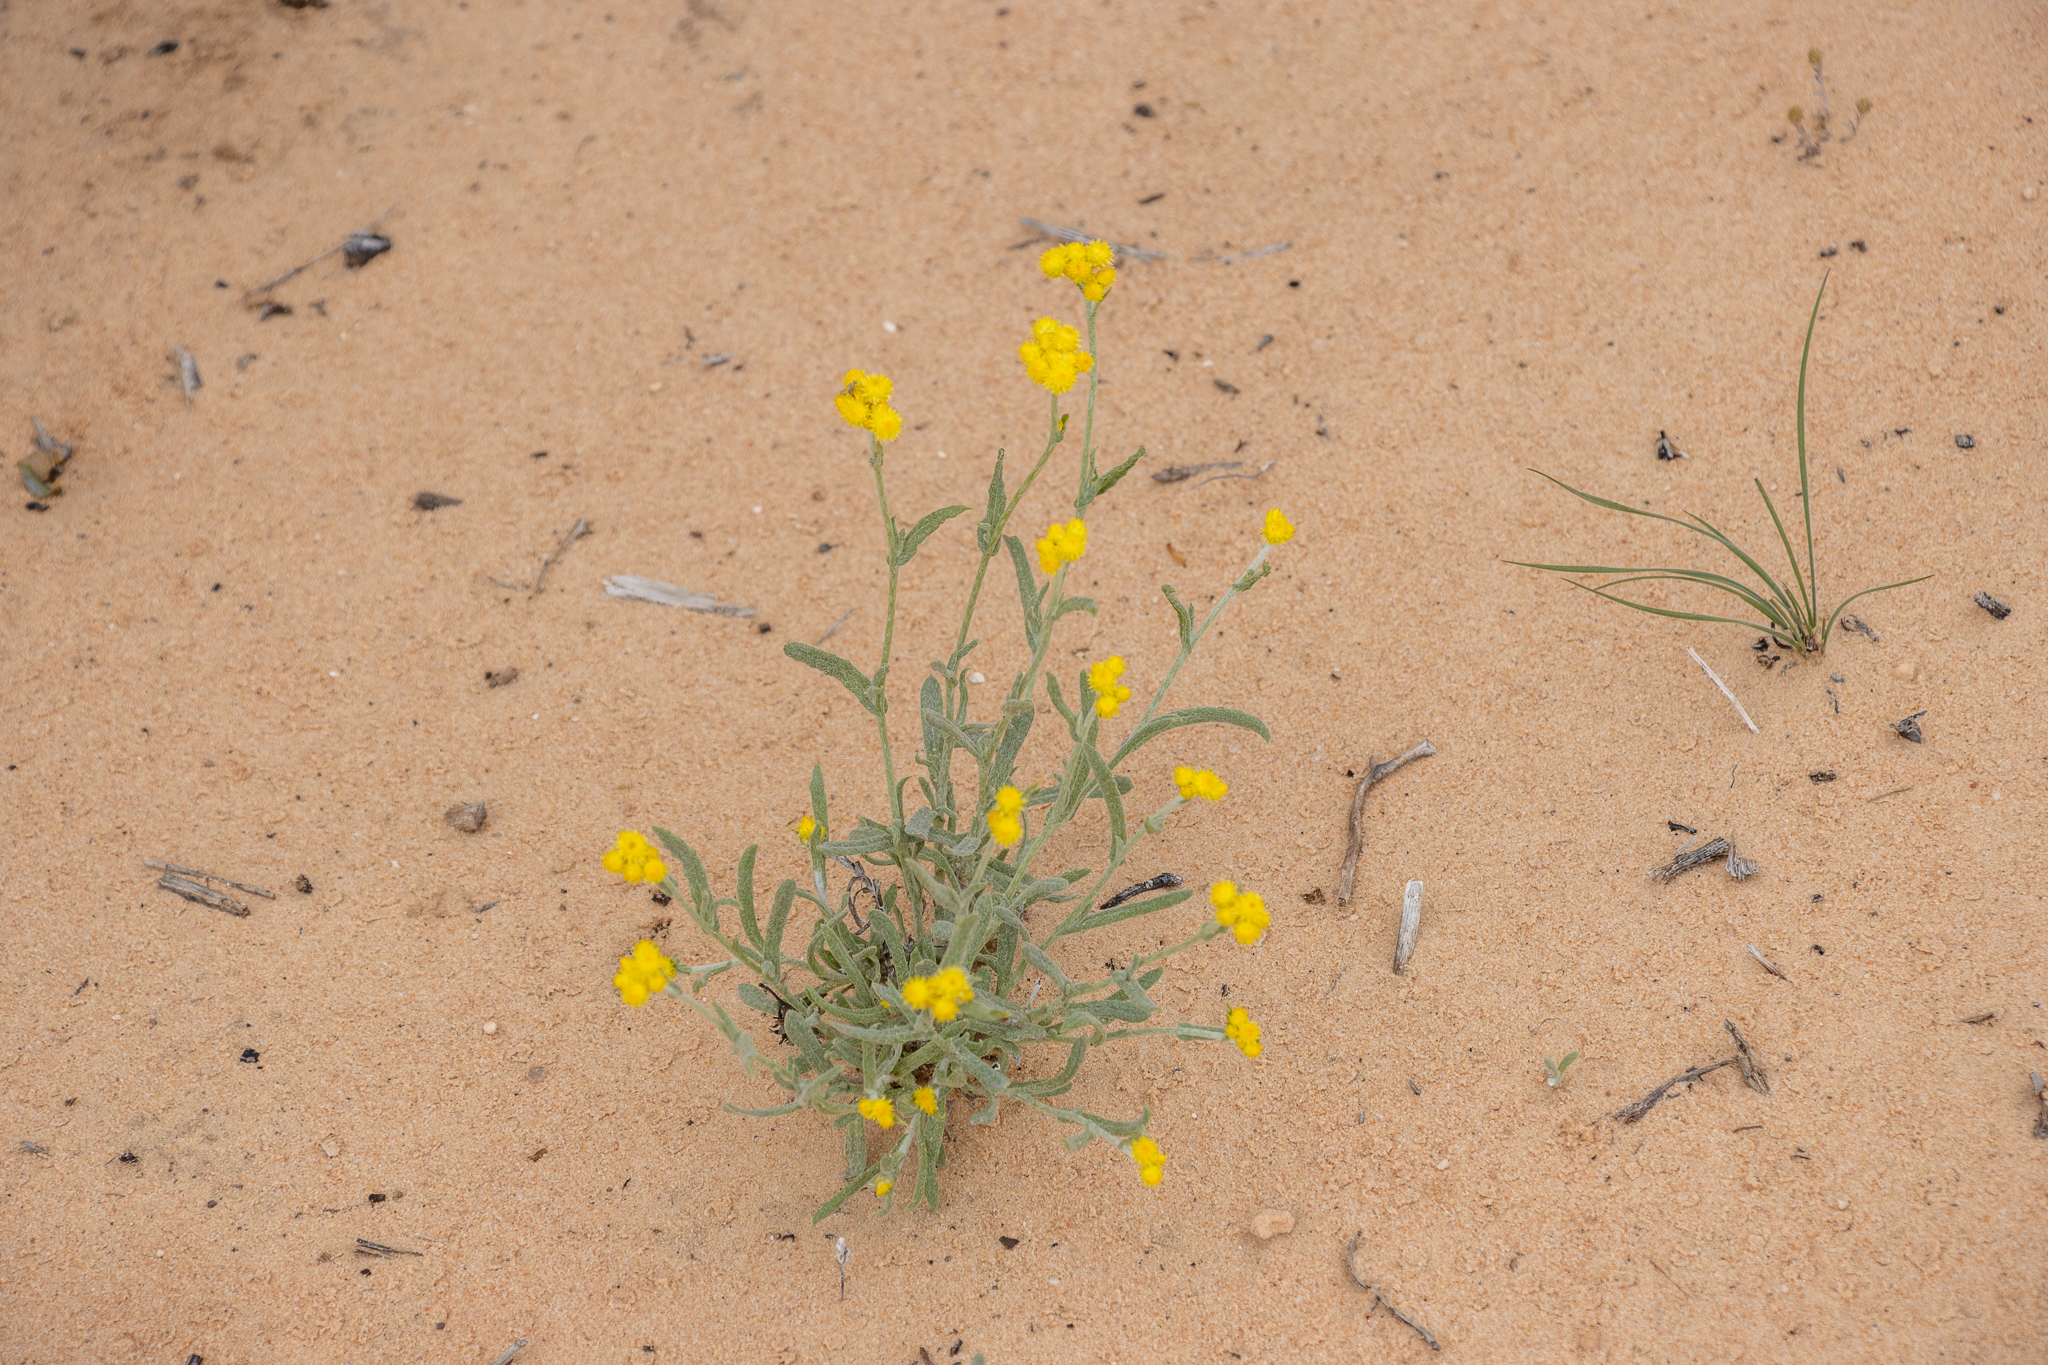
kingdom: Plantae
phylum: Tracheophyta
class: Magnoliopsida
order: Asterales
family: Asteraceae
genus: Chrysocephalum
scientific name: Chrysocephalum apiculatum
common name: Common everlasting
